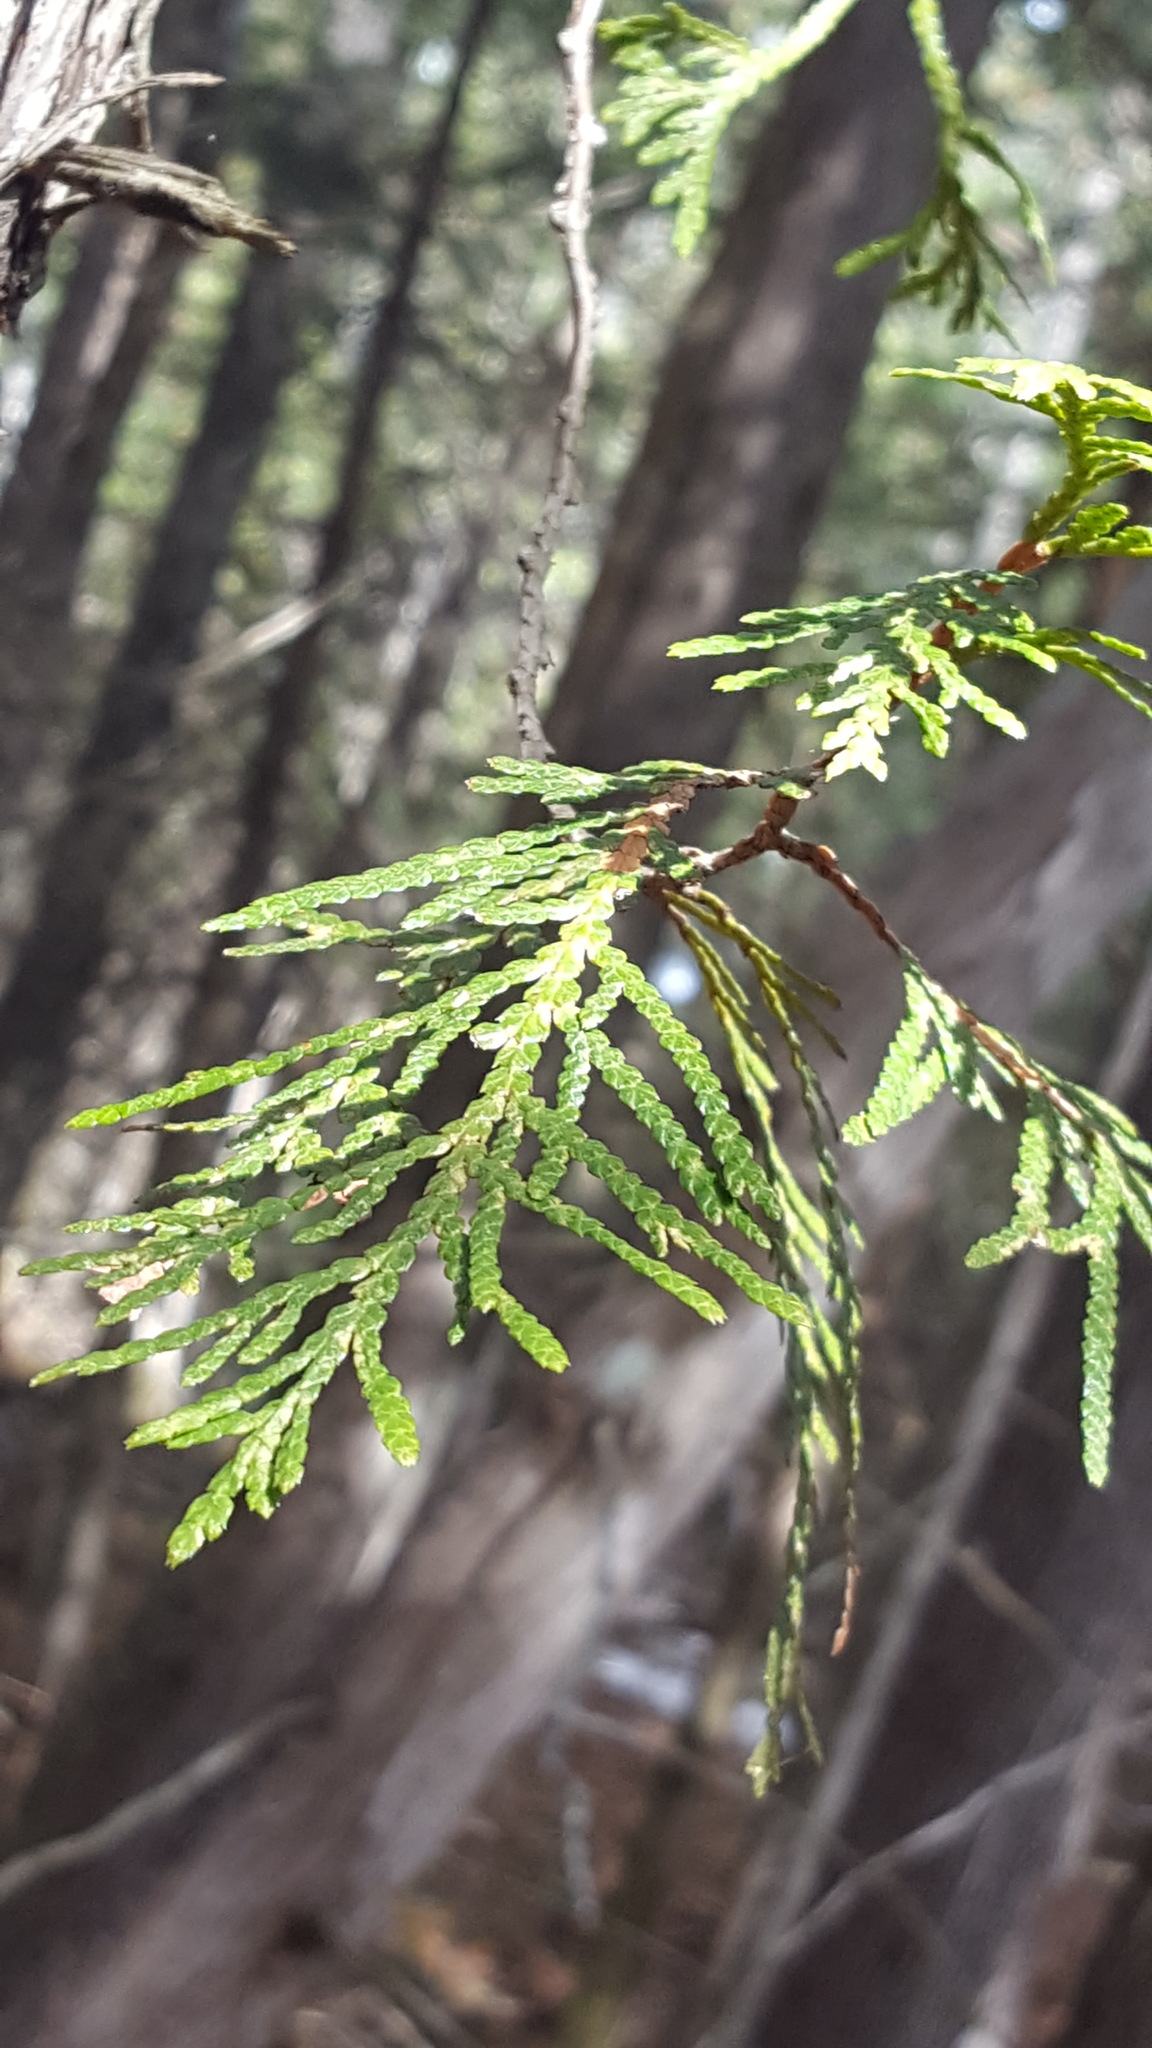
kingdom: Plantae
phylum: Tracheophyta
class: Pinopsida
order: Pinales
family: Cupressaceae
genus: Thuja
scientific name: Thuja occidentalis
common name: Northern white-cedar
